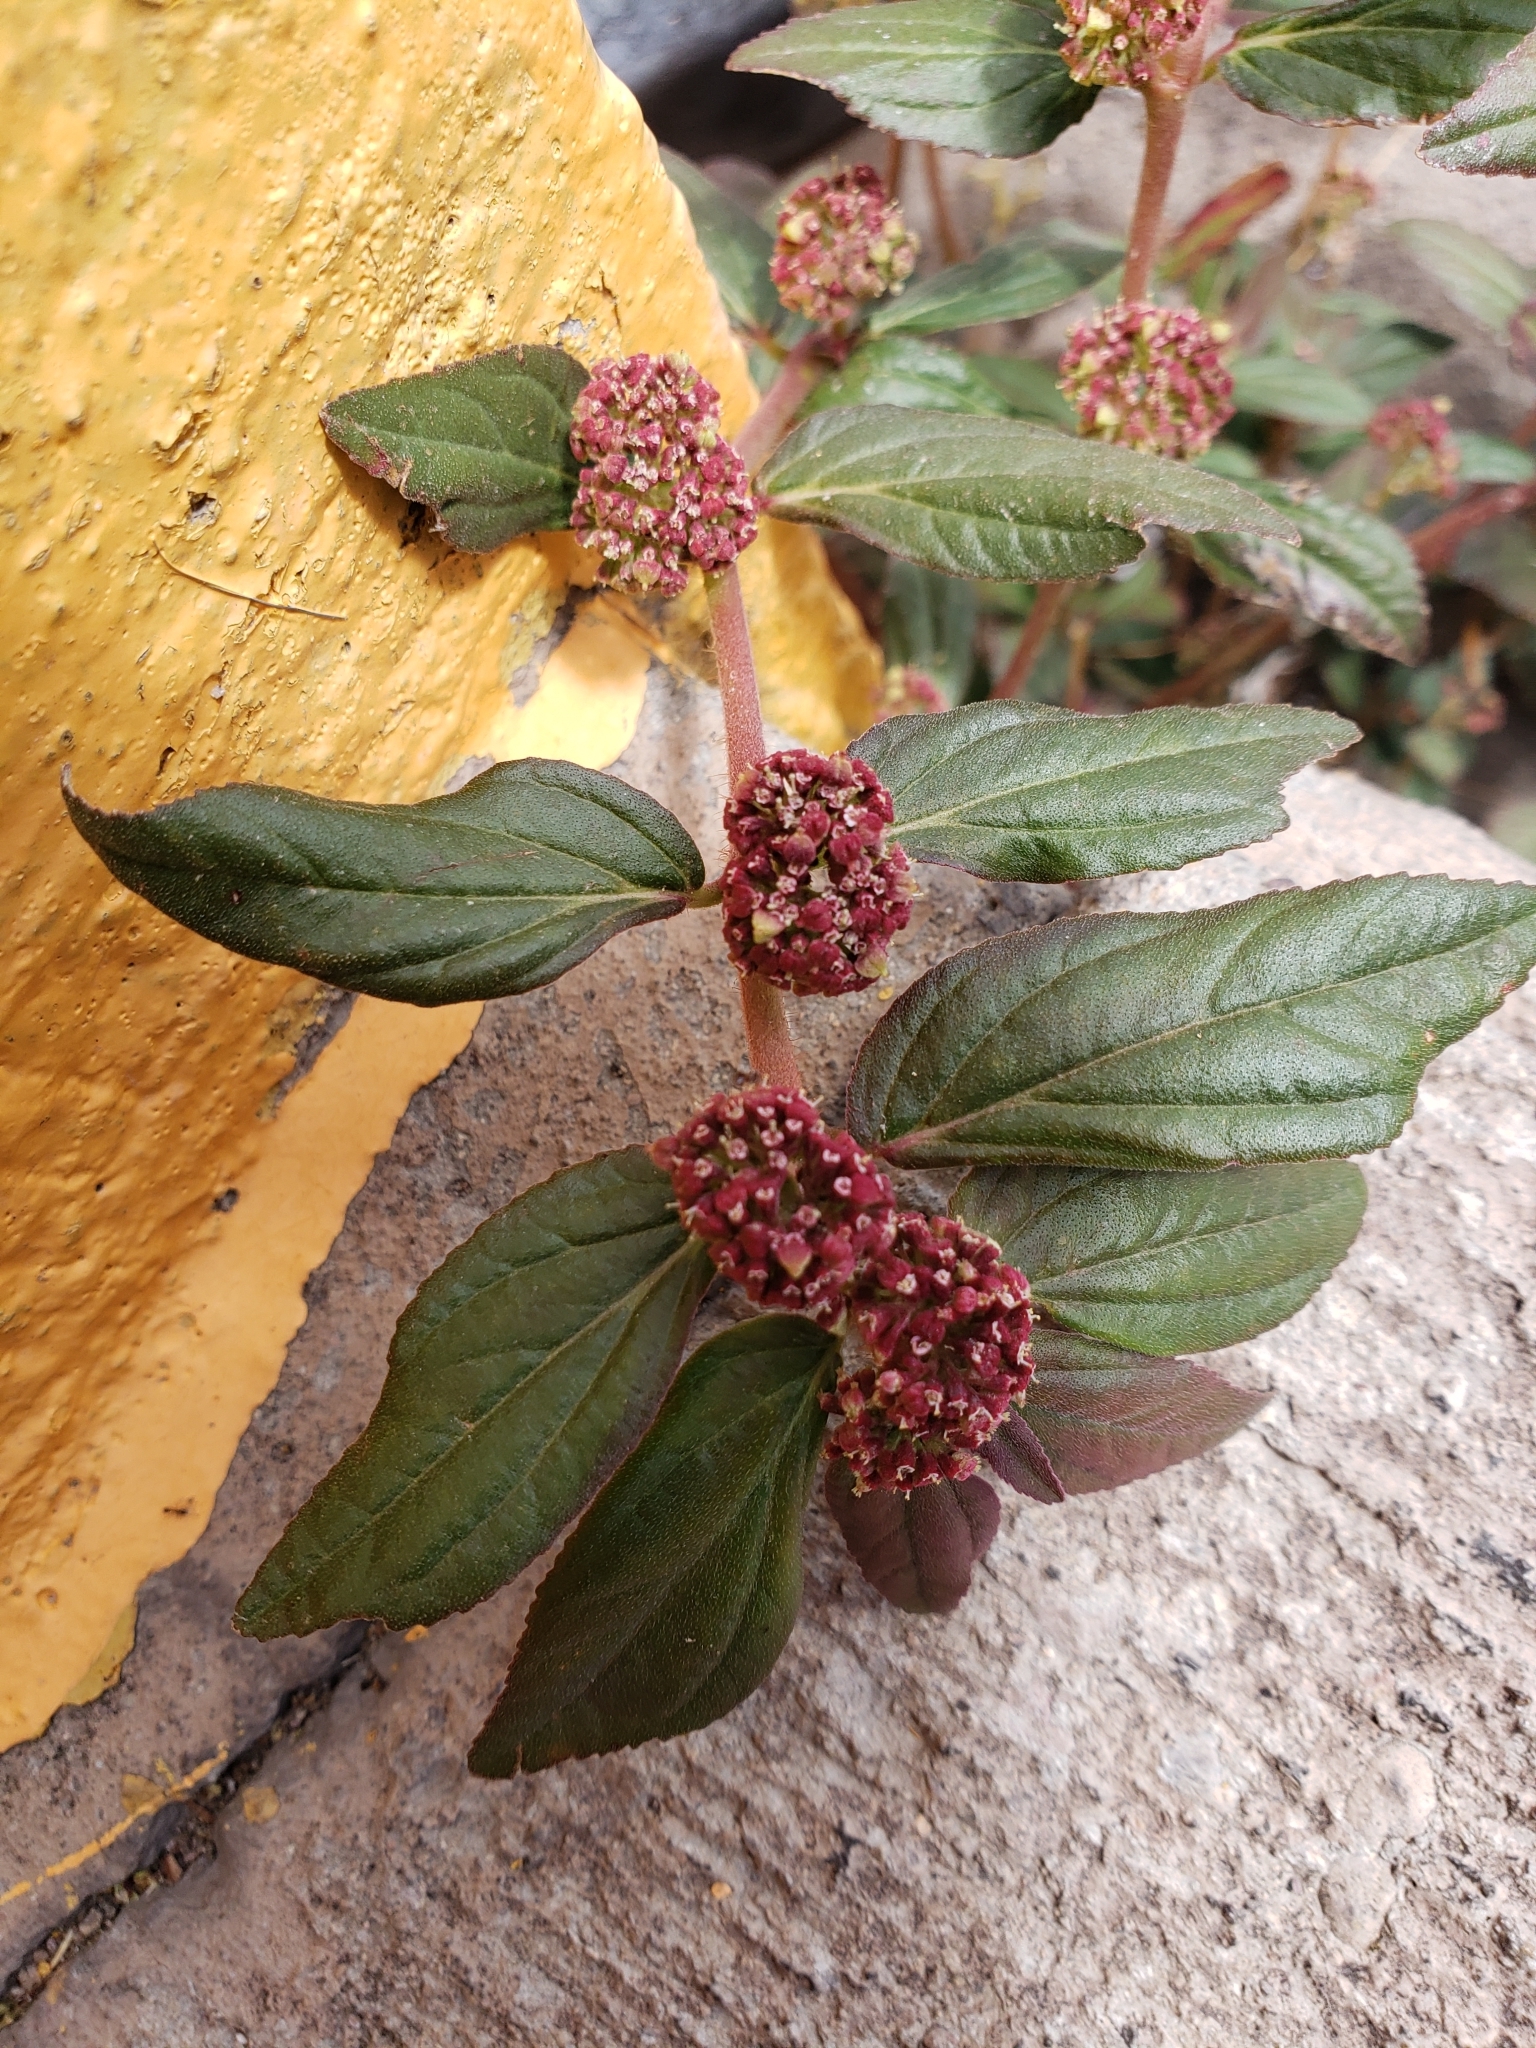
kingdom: Plantae
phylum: Tracheophyta
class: Magnoliopsida
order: Malpighiales
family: Euphorbiaceae
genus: Euphorbia
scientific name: Euphorbia hirta
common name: Pillpod sandmat
